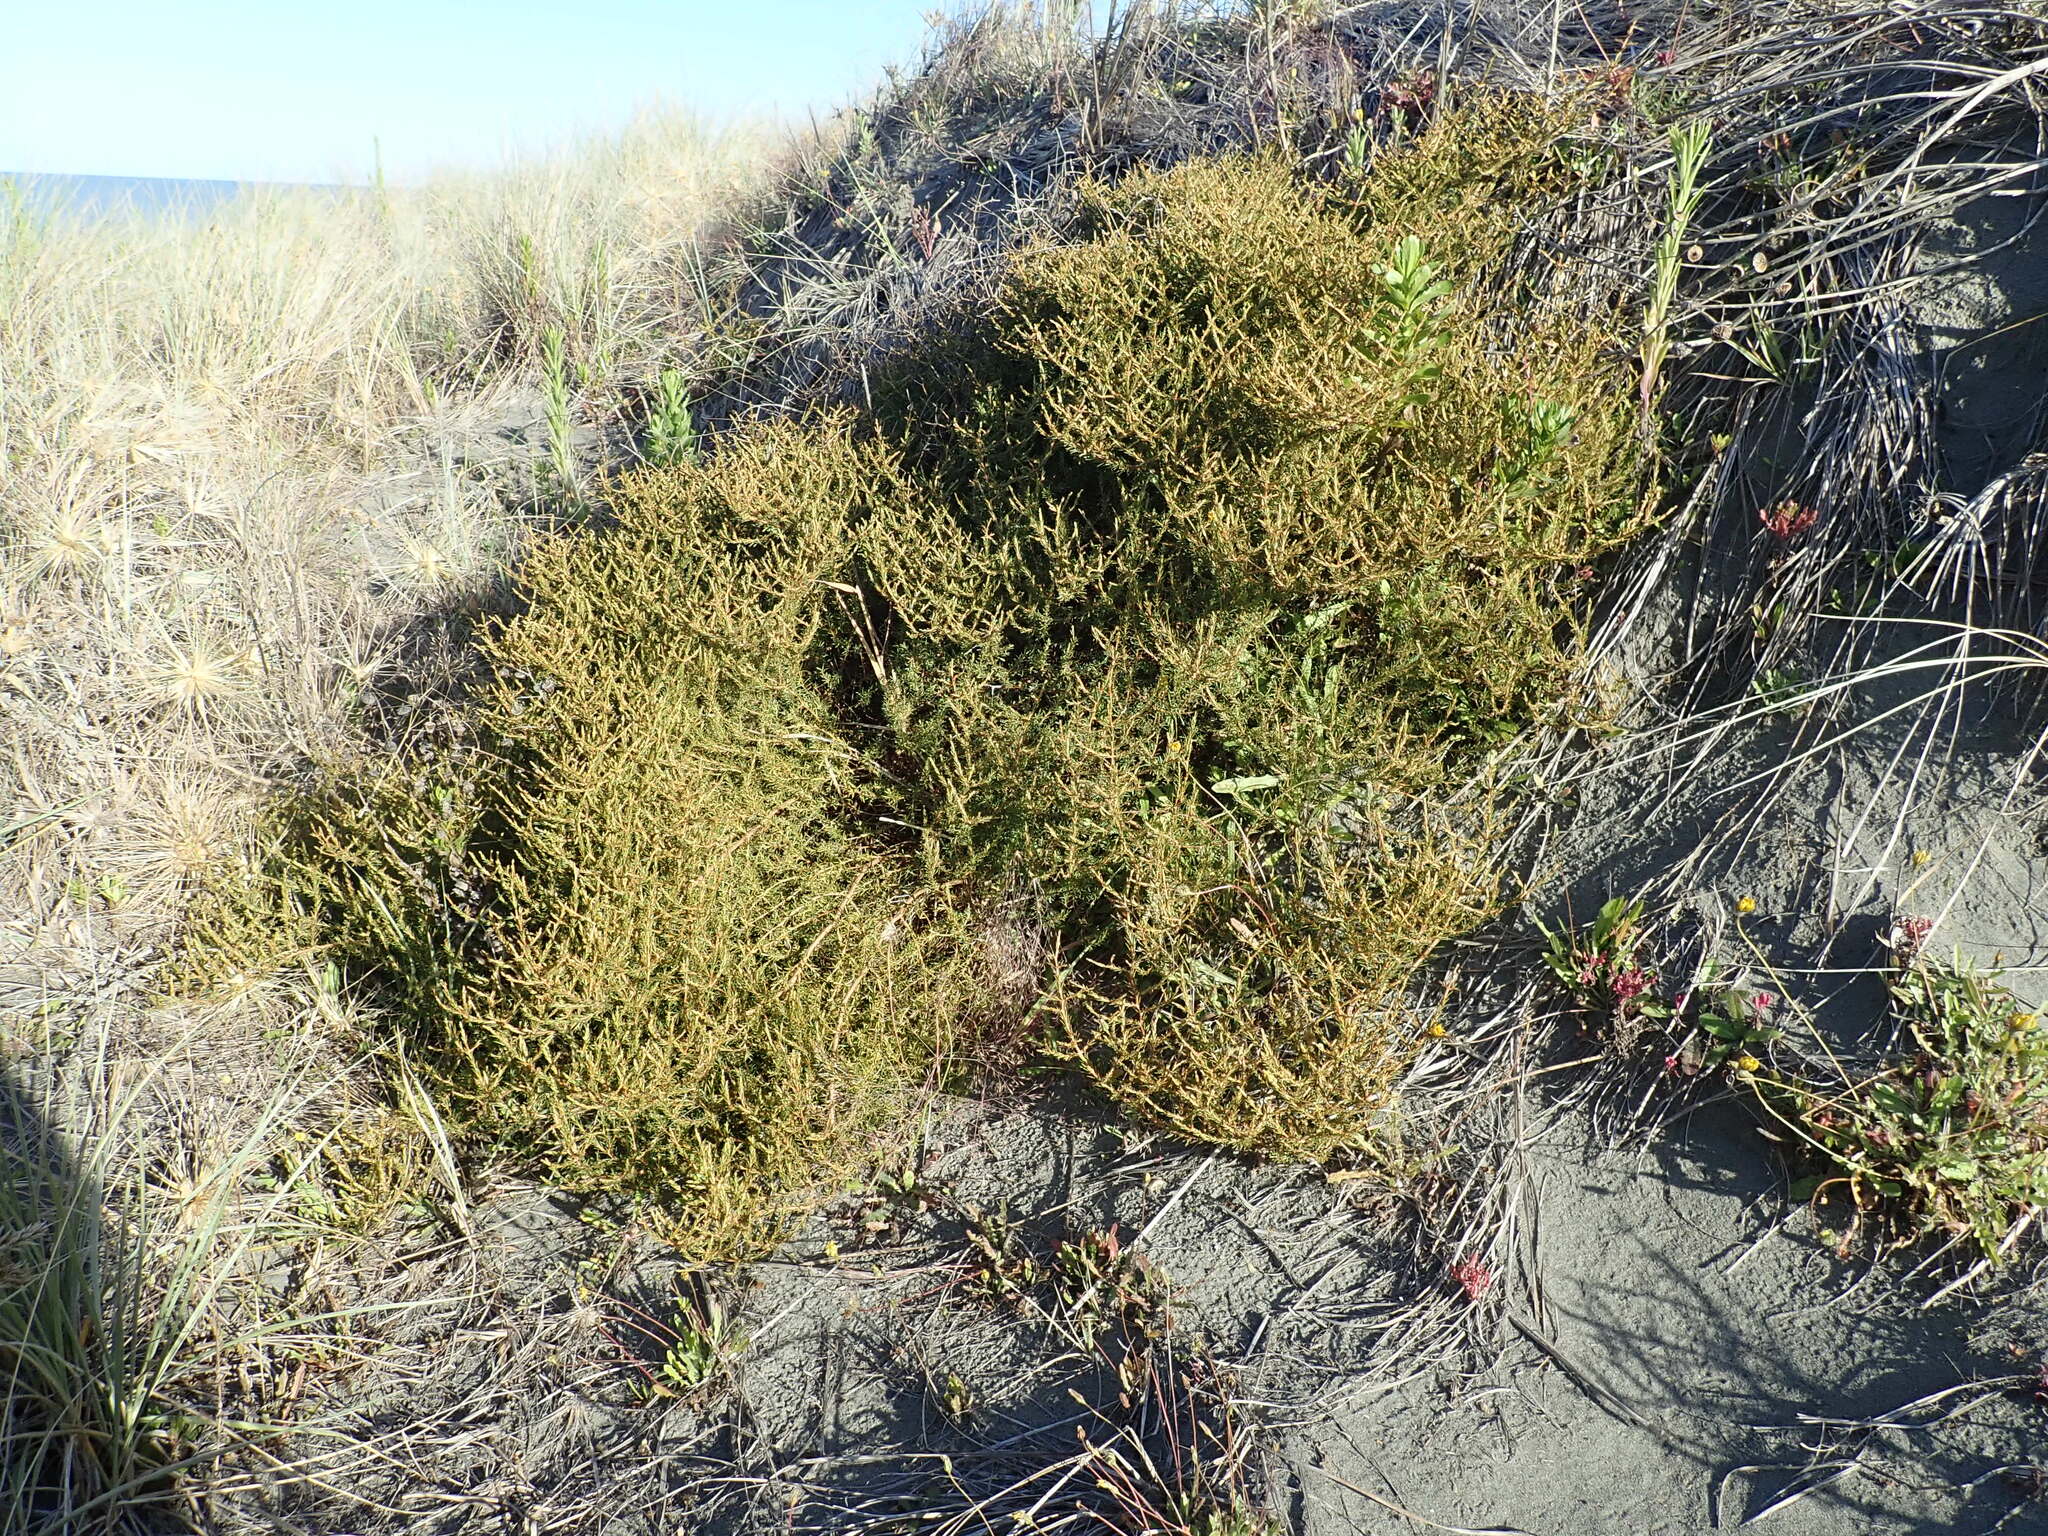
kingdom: Plantae
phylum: Tracheophyta
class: Magnoliopsida
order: Gentianales
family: Rubiaceae
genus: Coprosma
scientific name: Coprosma acerosa
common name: Sand coprosma
